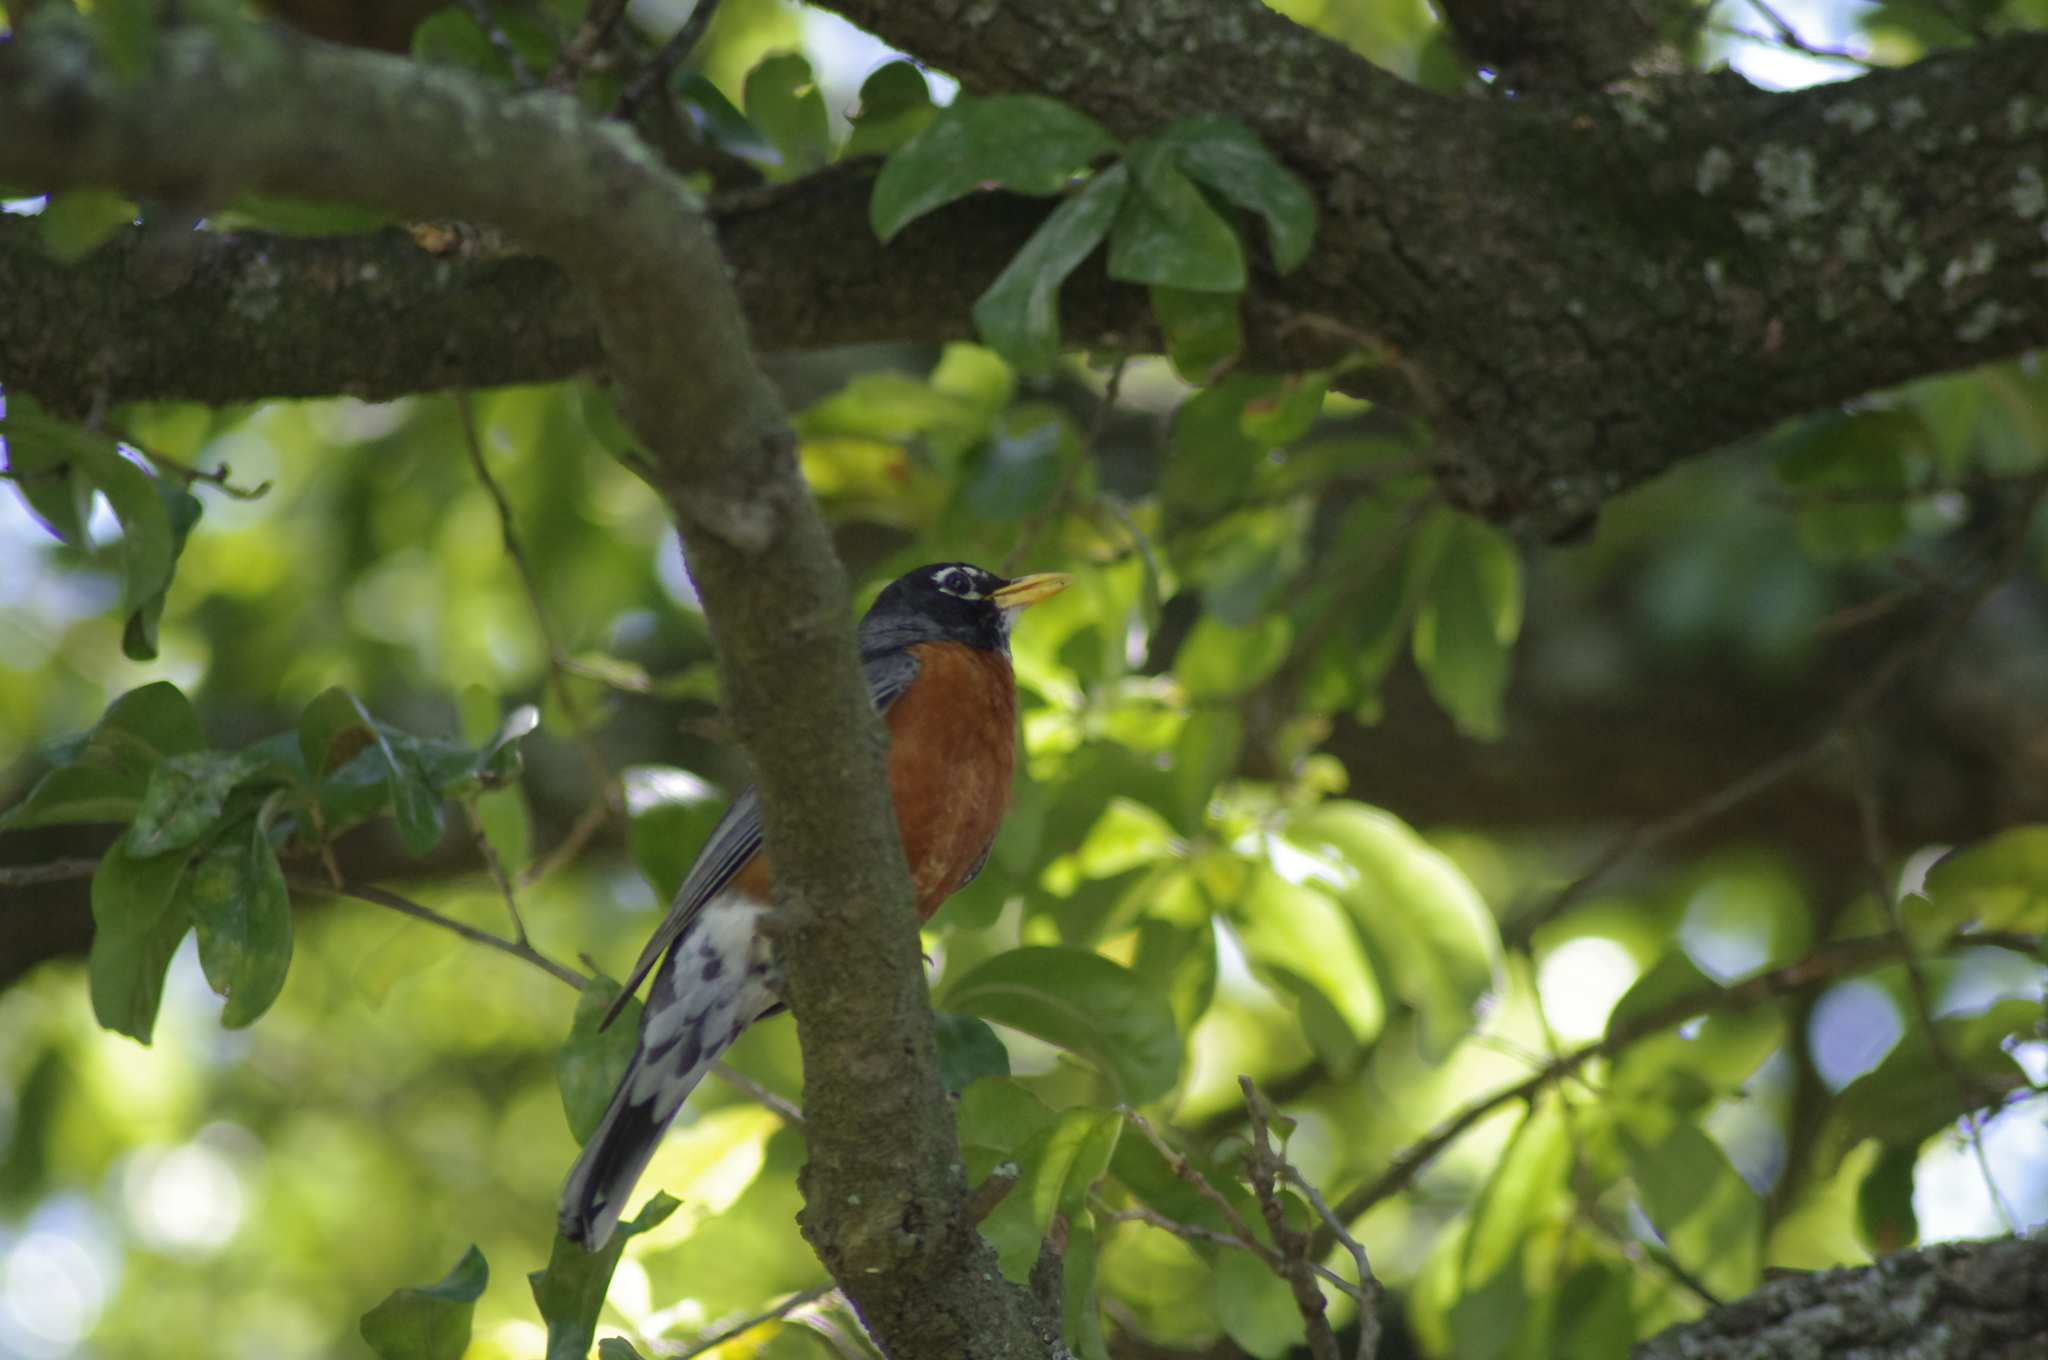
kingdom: Animalia
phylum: Chordata
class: Aves
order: Passeriformes
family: Turdidae
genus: Turdus
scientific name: Turdus migratorius
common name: American robin
